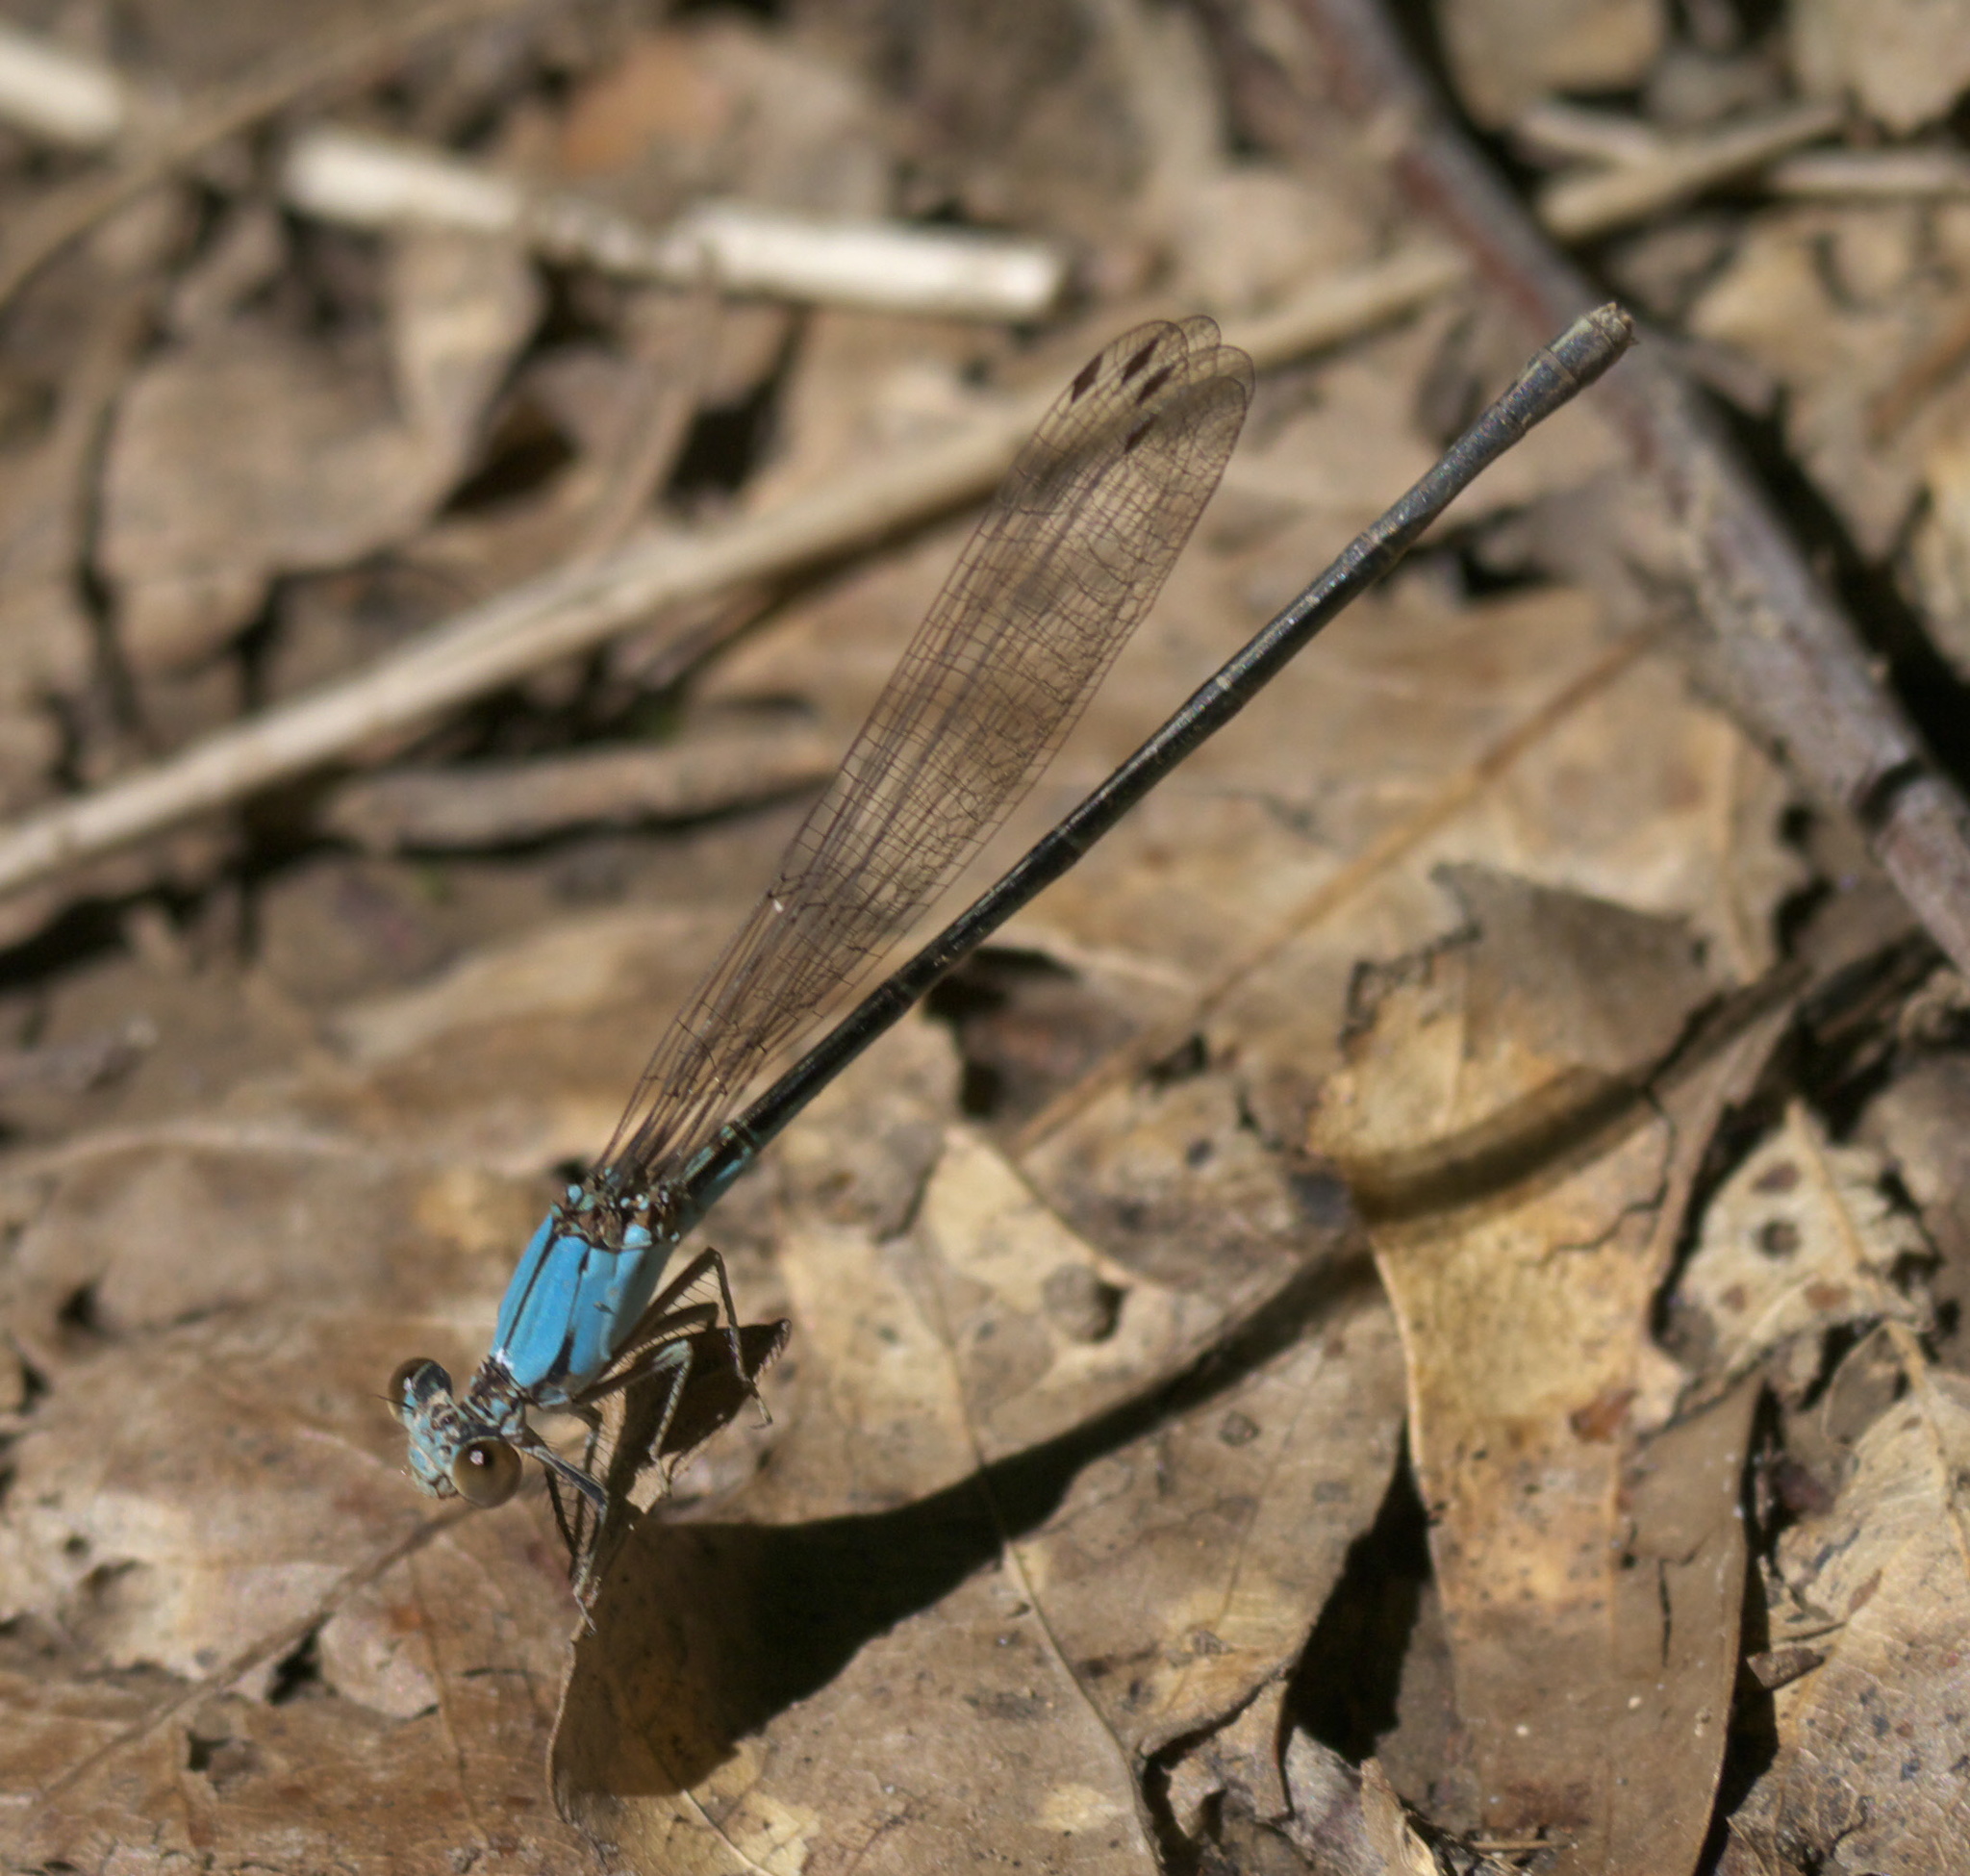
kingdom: Animalia
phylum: Arthropoda
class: Insecta
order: Odonata
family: Coenagrionidae
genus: Argia
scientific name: Argia apicalis
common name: Blue-fronted dancer
